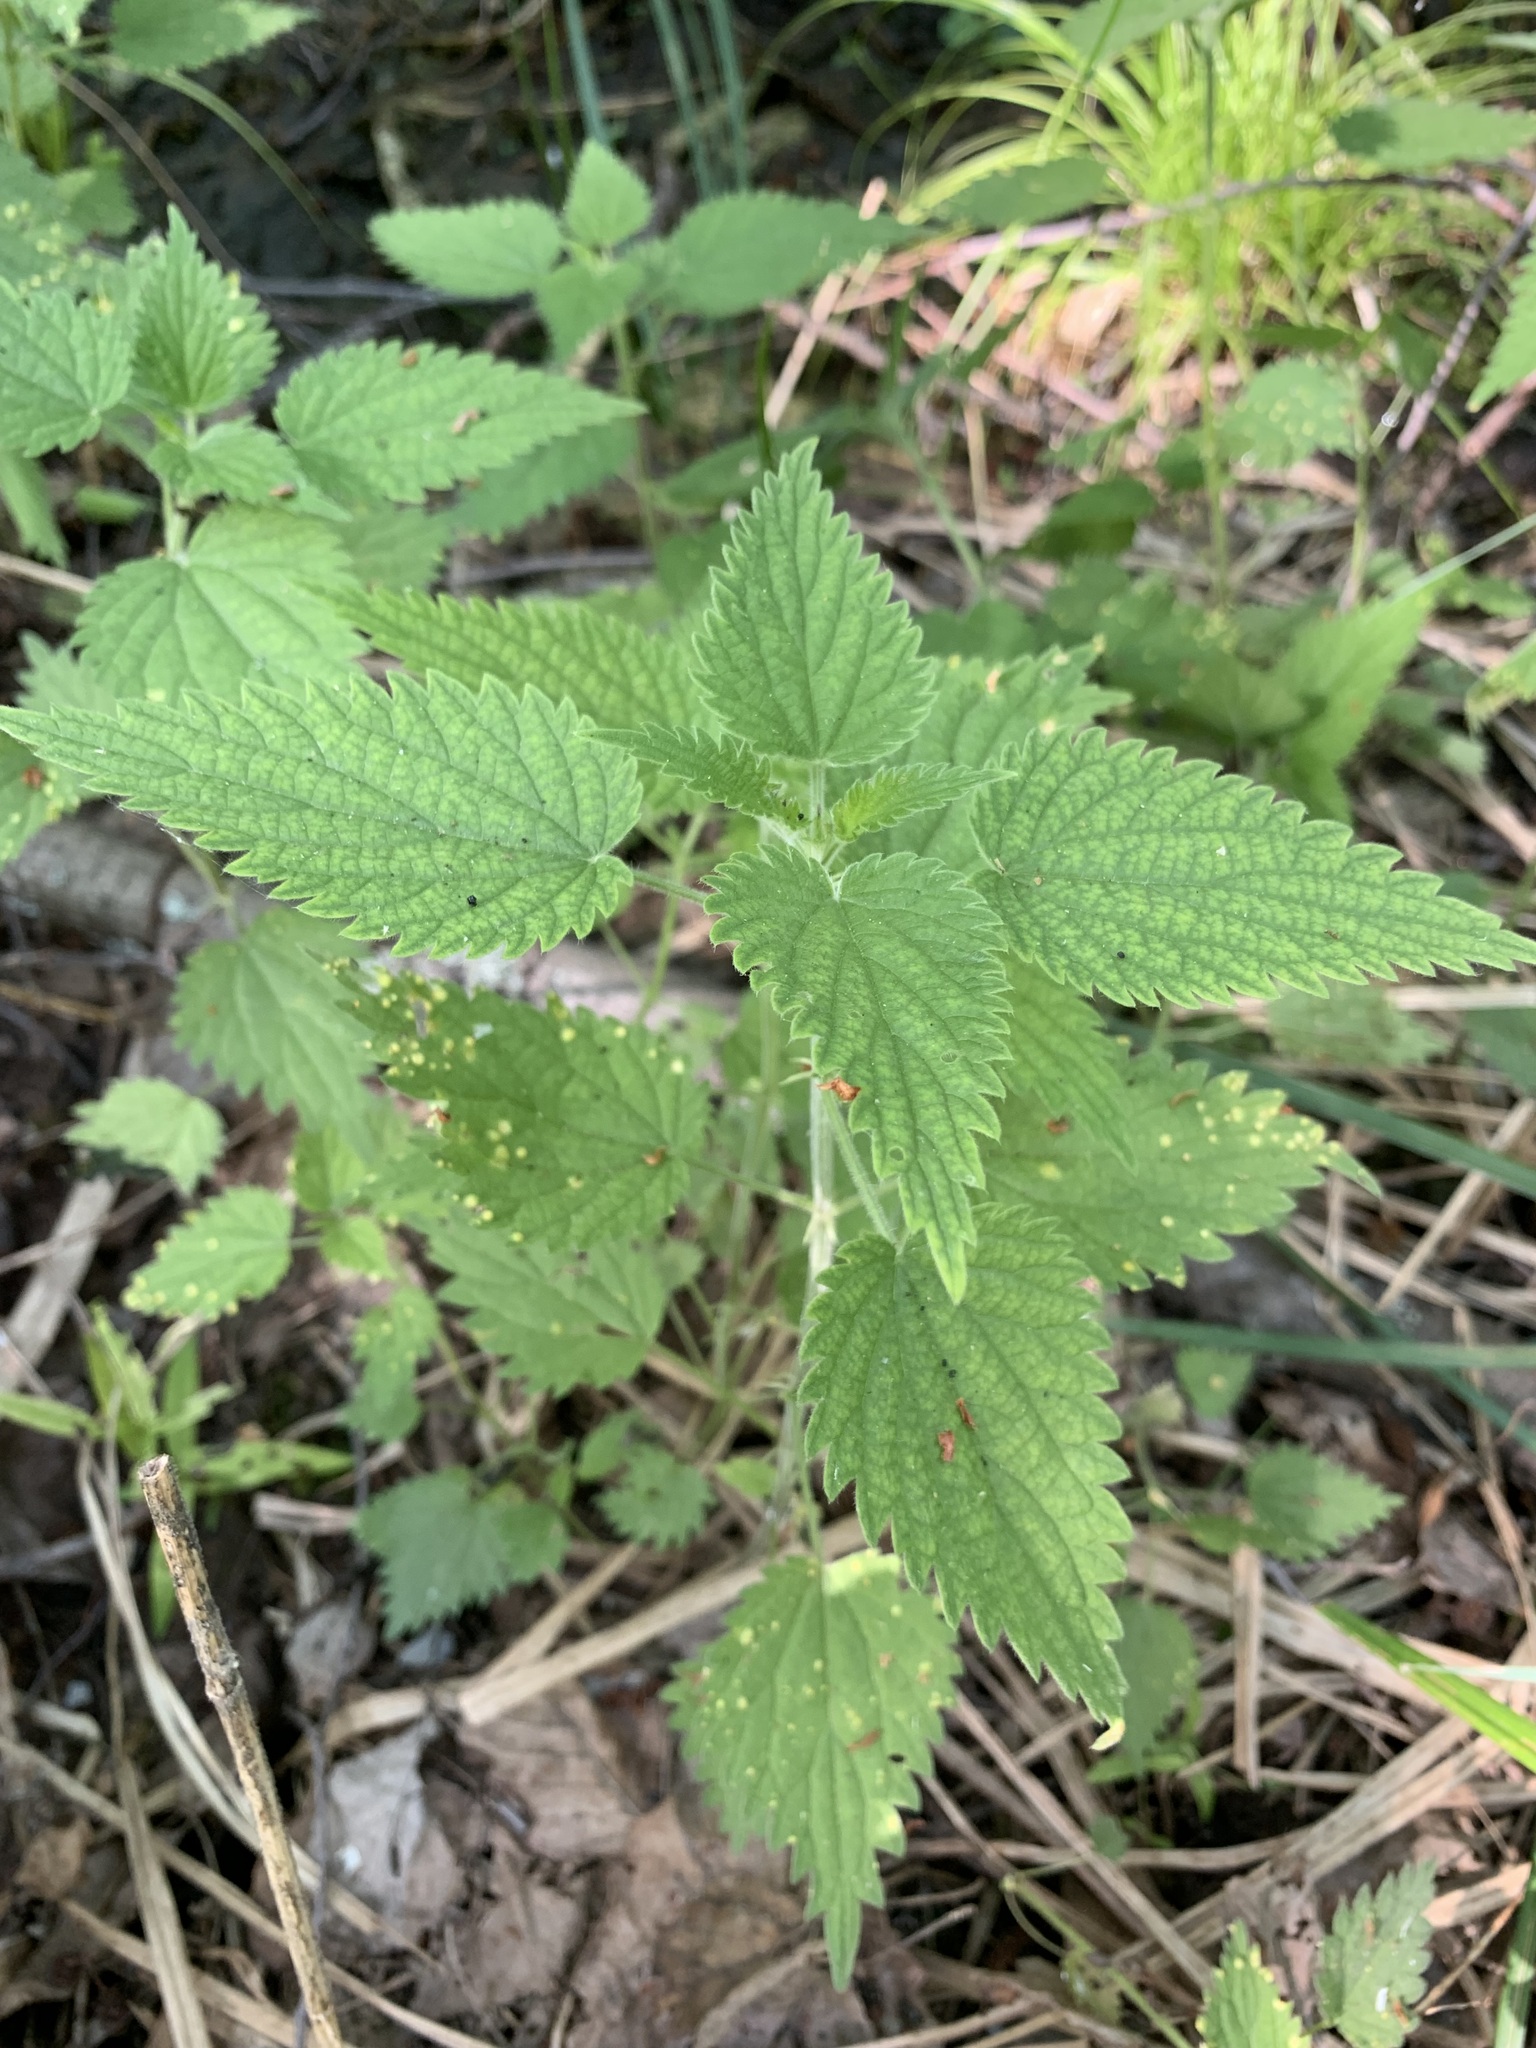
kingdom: Plantae
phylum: Tracheophyta
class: Magnoliopsida
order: Rosales
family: Urticaceae
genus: Urtica
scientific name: Urtica galeopsifolia
